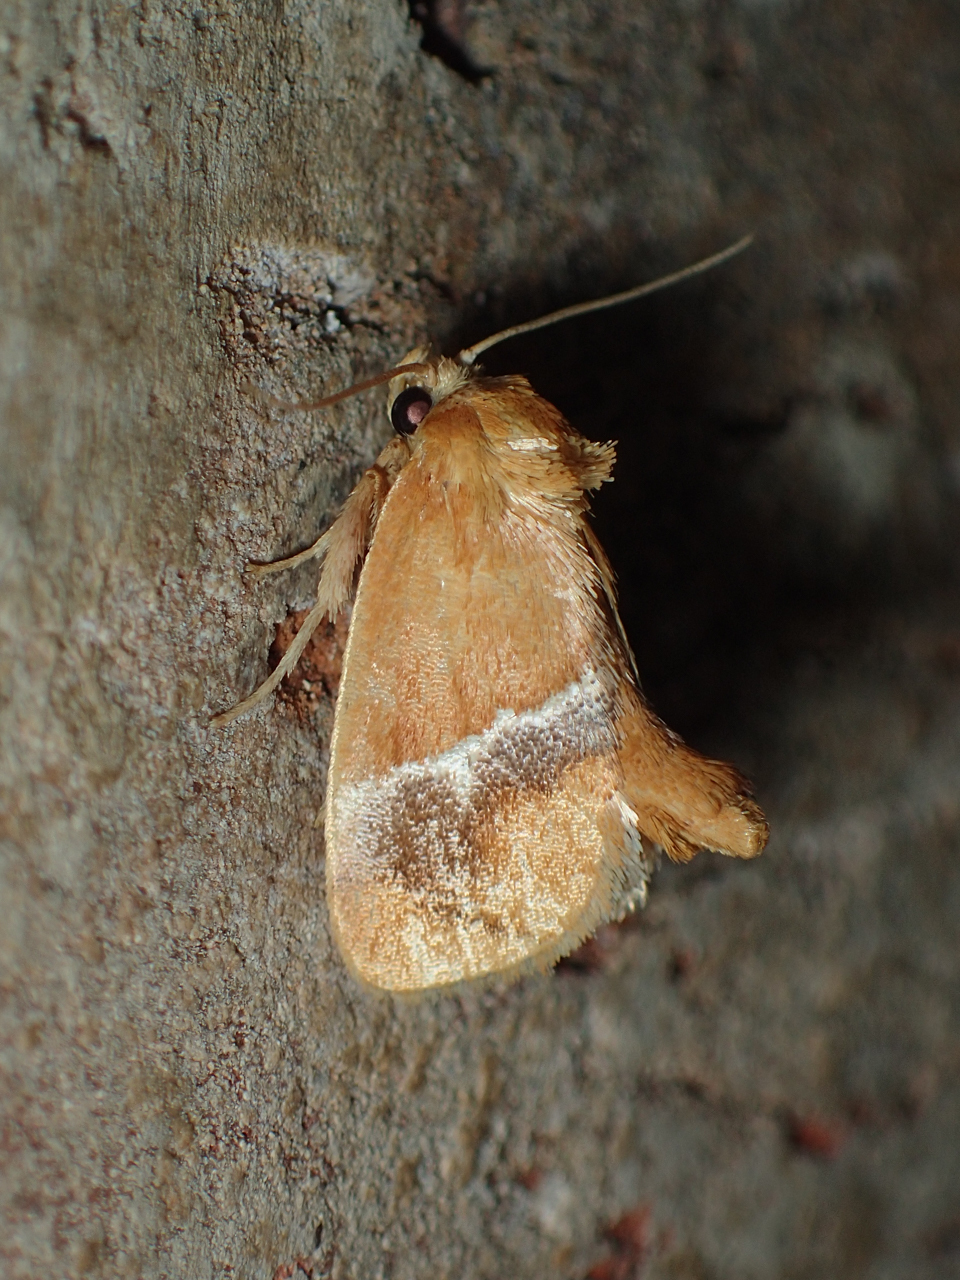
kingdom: Animalia
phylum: Arthropoda
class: Insecta
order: Lepidoptera
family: Limacodidae
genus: Lithacodes
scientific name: Lithacodes fasciola
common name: Yellow-shouldered slug moth
